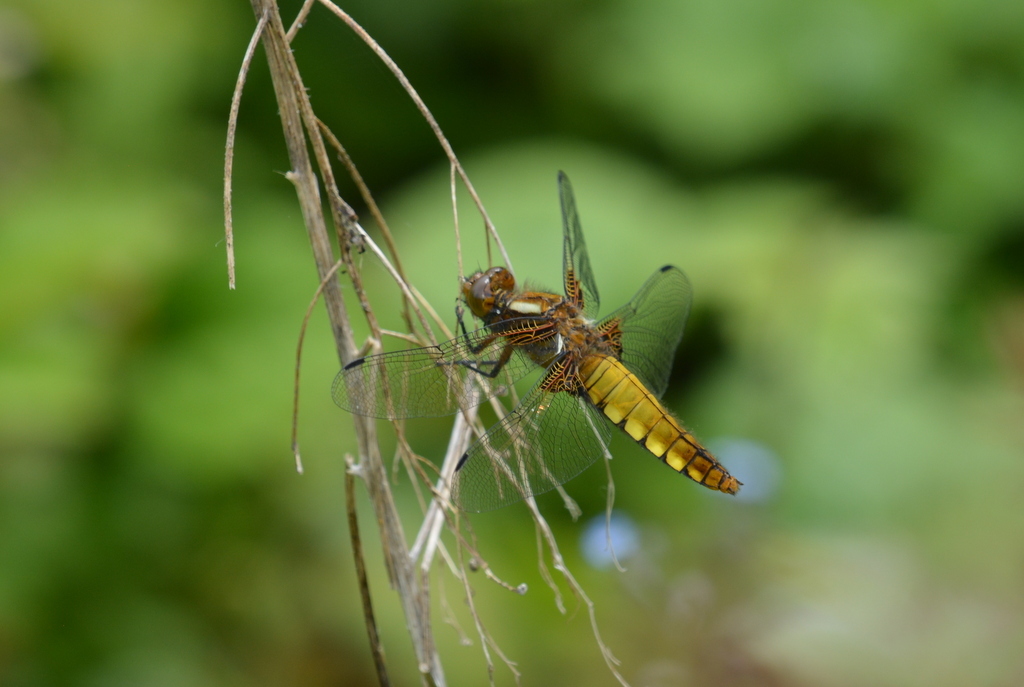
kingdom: Animalia
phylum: Arthropoda
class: Insecta
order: Odonata
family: Libellulidae
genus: Libellula
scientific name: Libellula depressa
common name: Broad-bodied chaser
